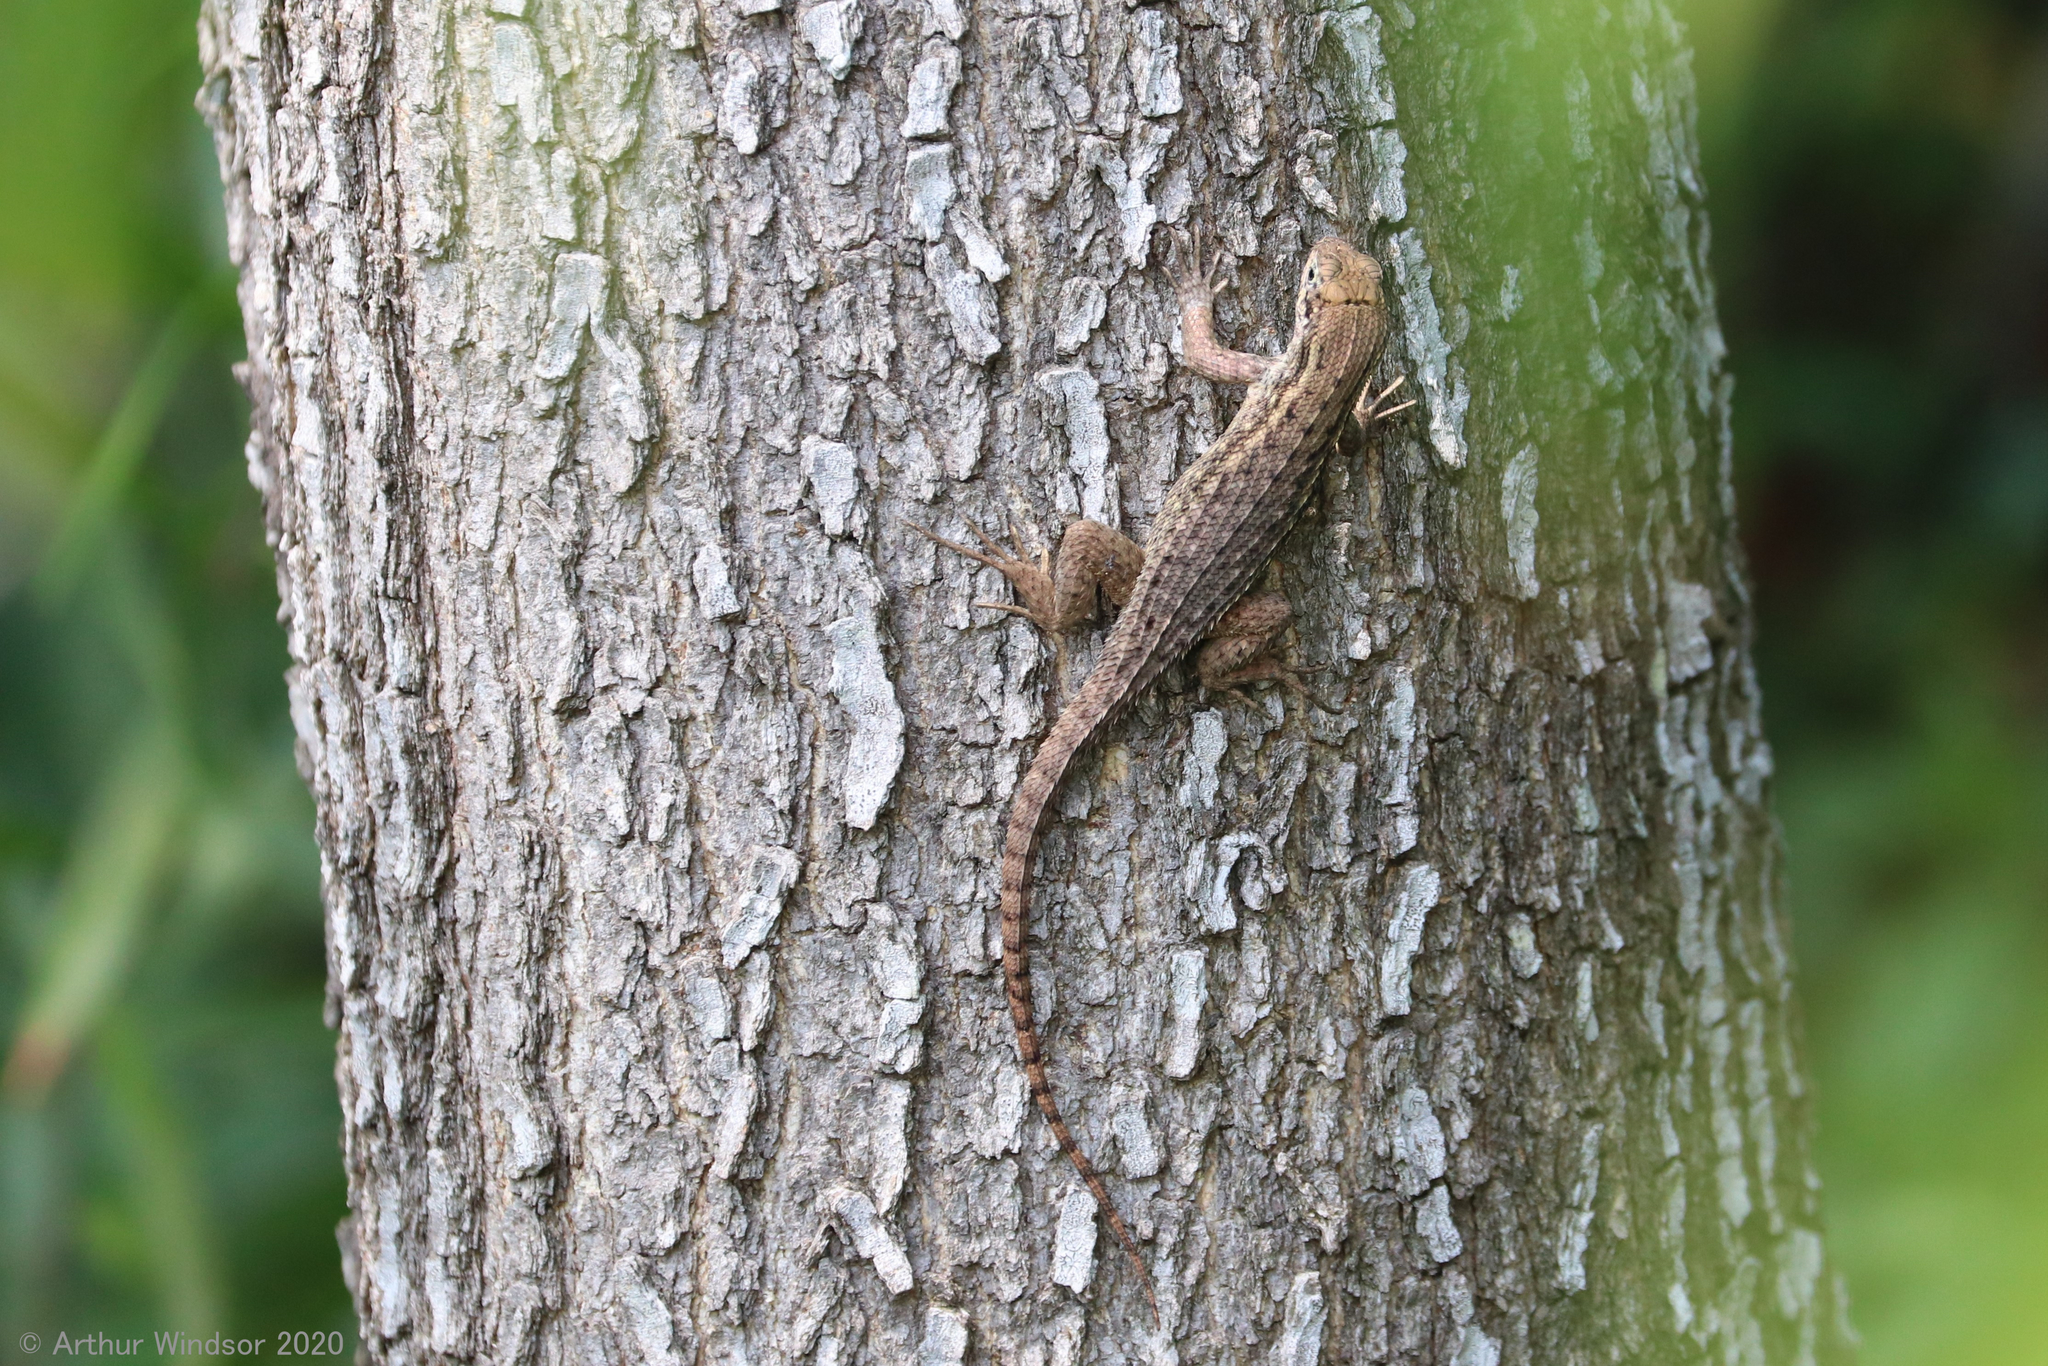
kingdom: Animalia
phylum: Chordata
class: Squamata
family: Leiocephalidae
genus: Leiocephalus
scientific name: Leiocephalus carinatus
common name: Northern curly-tailed lizard
